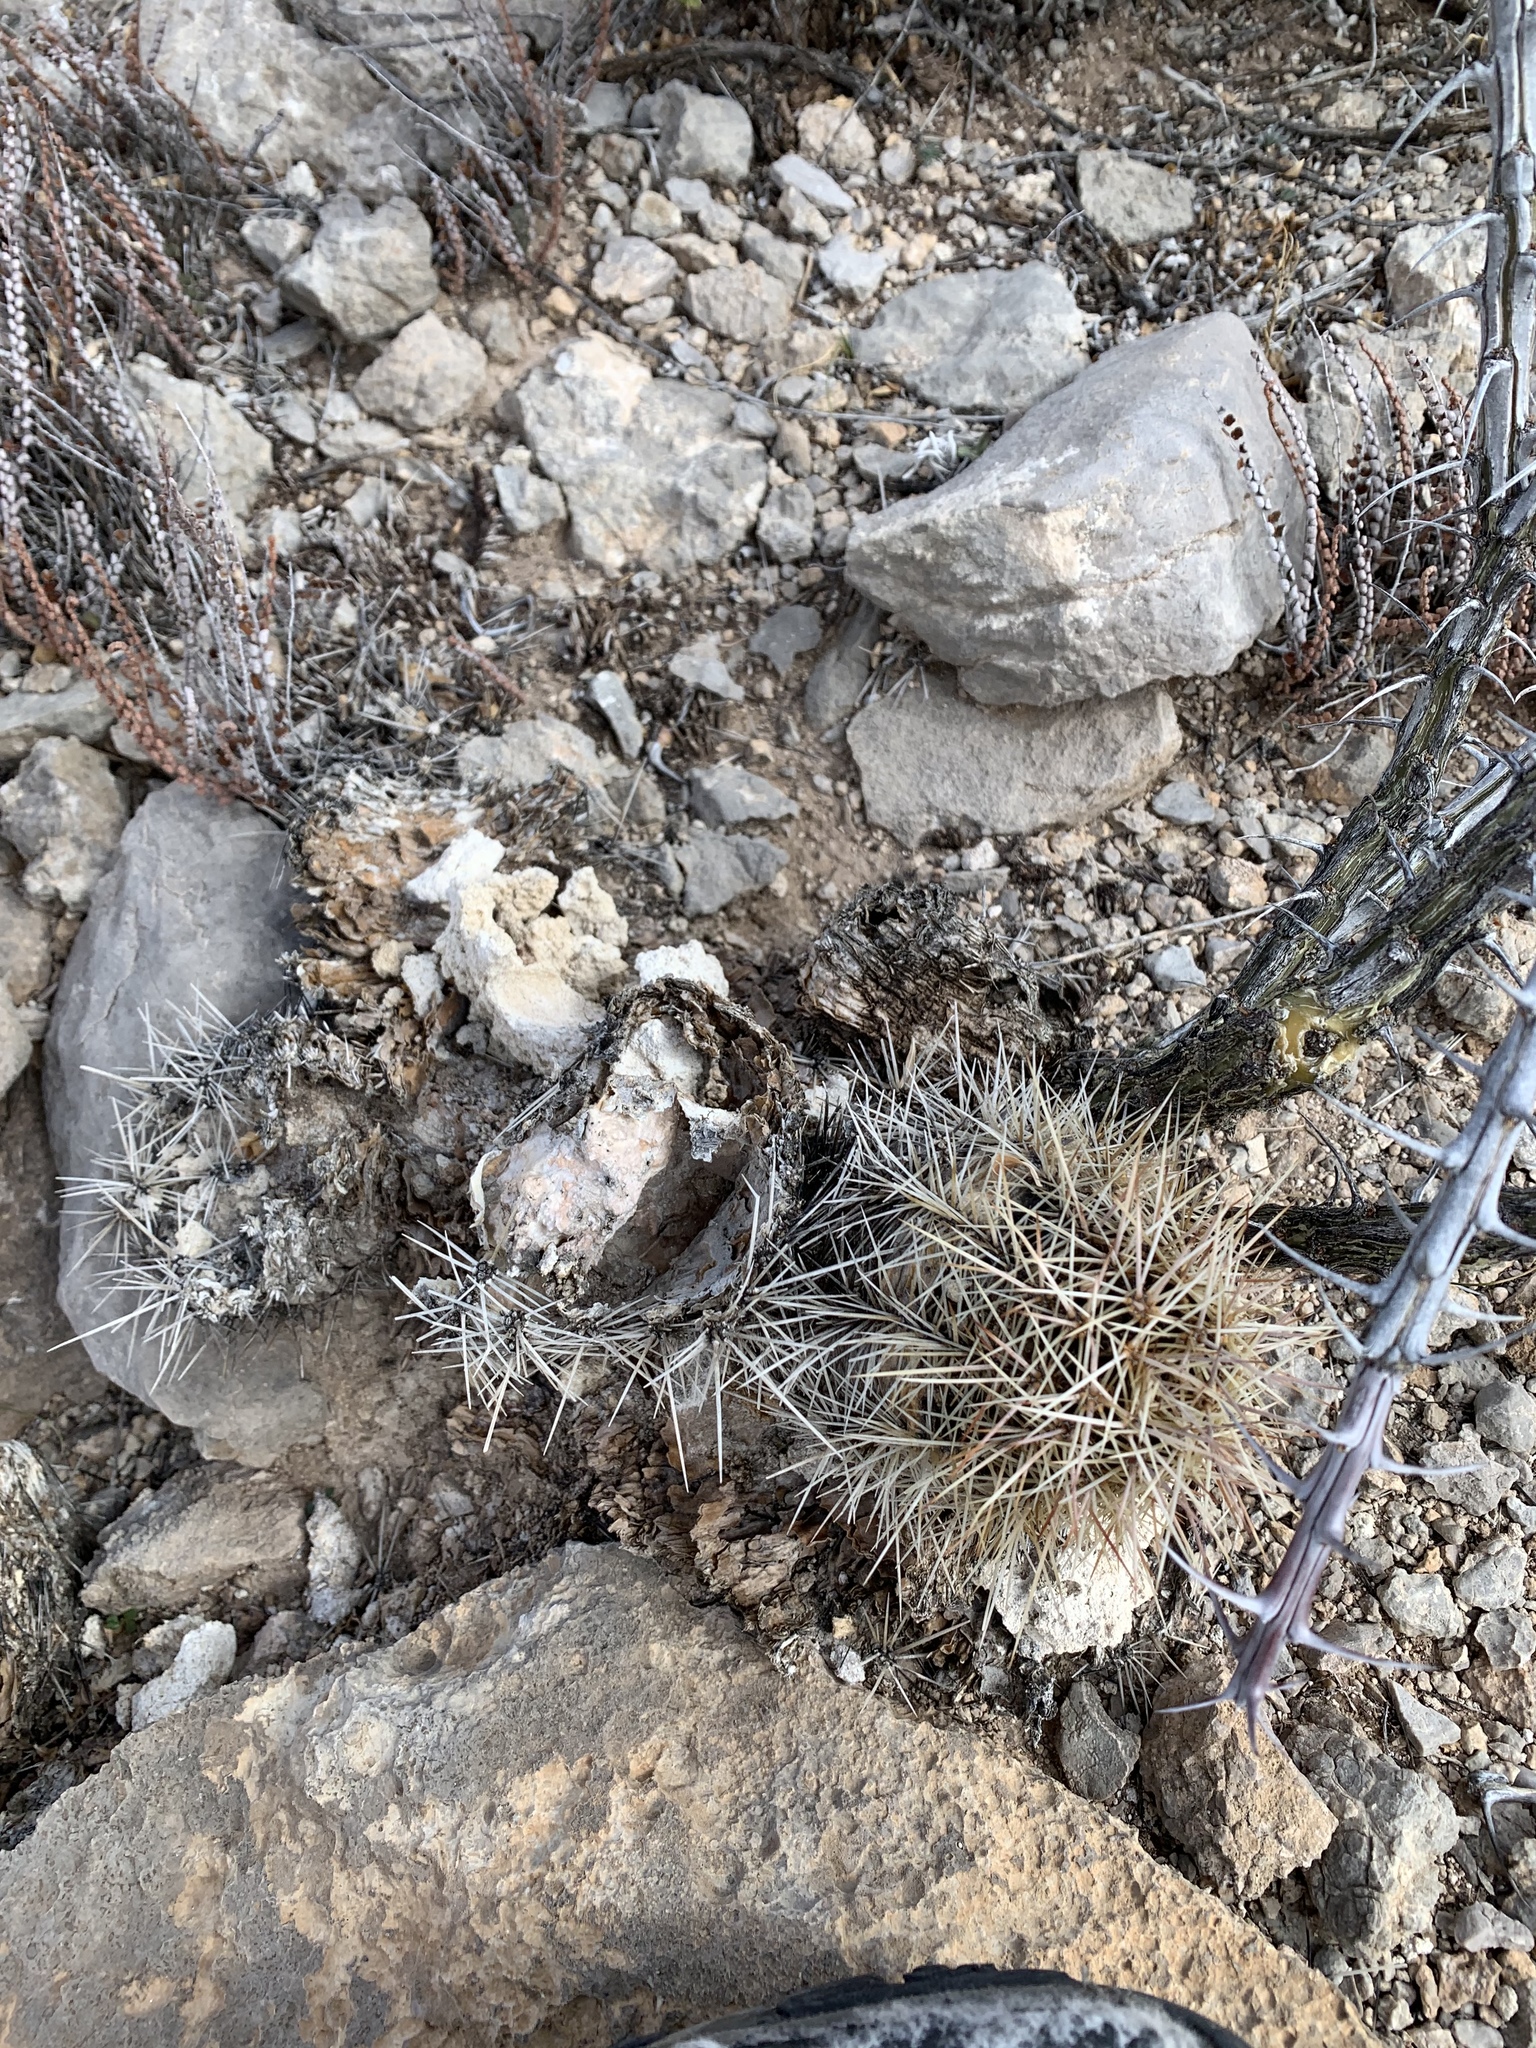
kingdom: Plantae
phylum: Tracheophyta
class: Magnoliopsida
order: Caryophyllales
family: Cactaceae
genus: Echinocereus
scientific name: Echinocereus coccineus
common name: Scarlet hedgehog cactus
